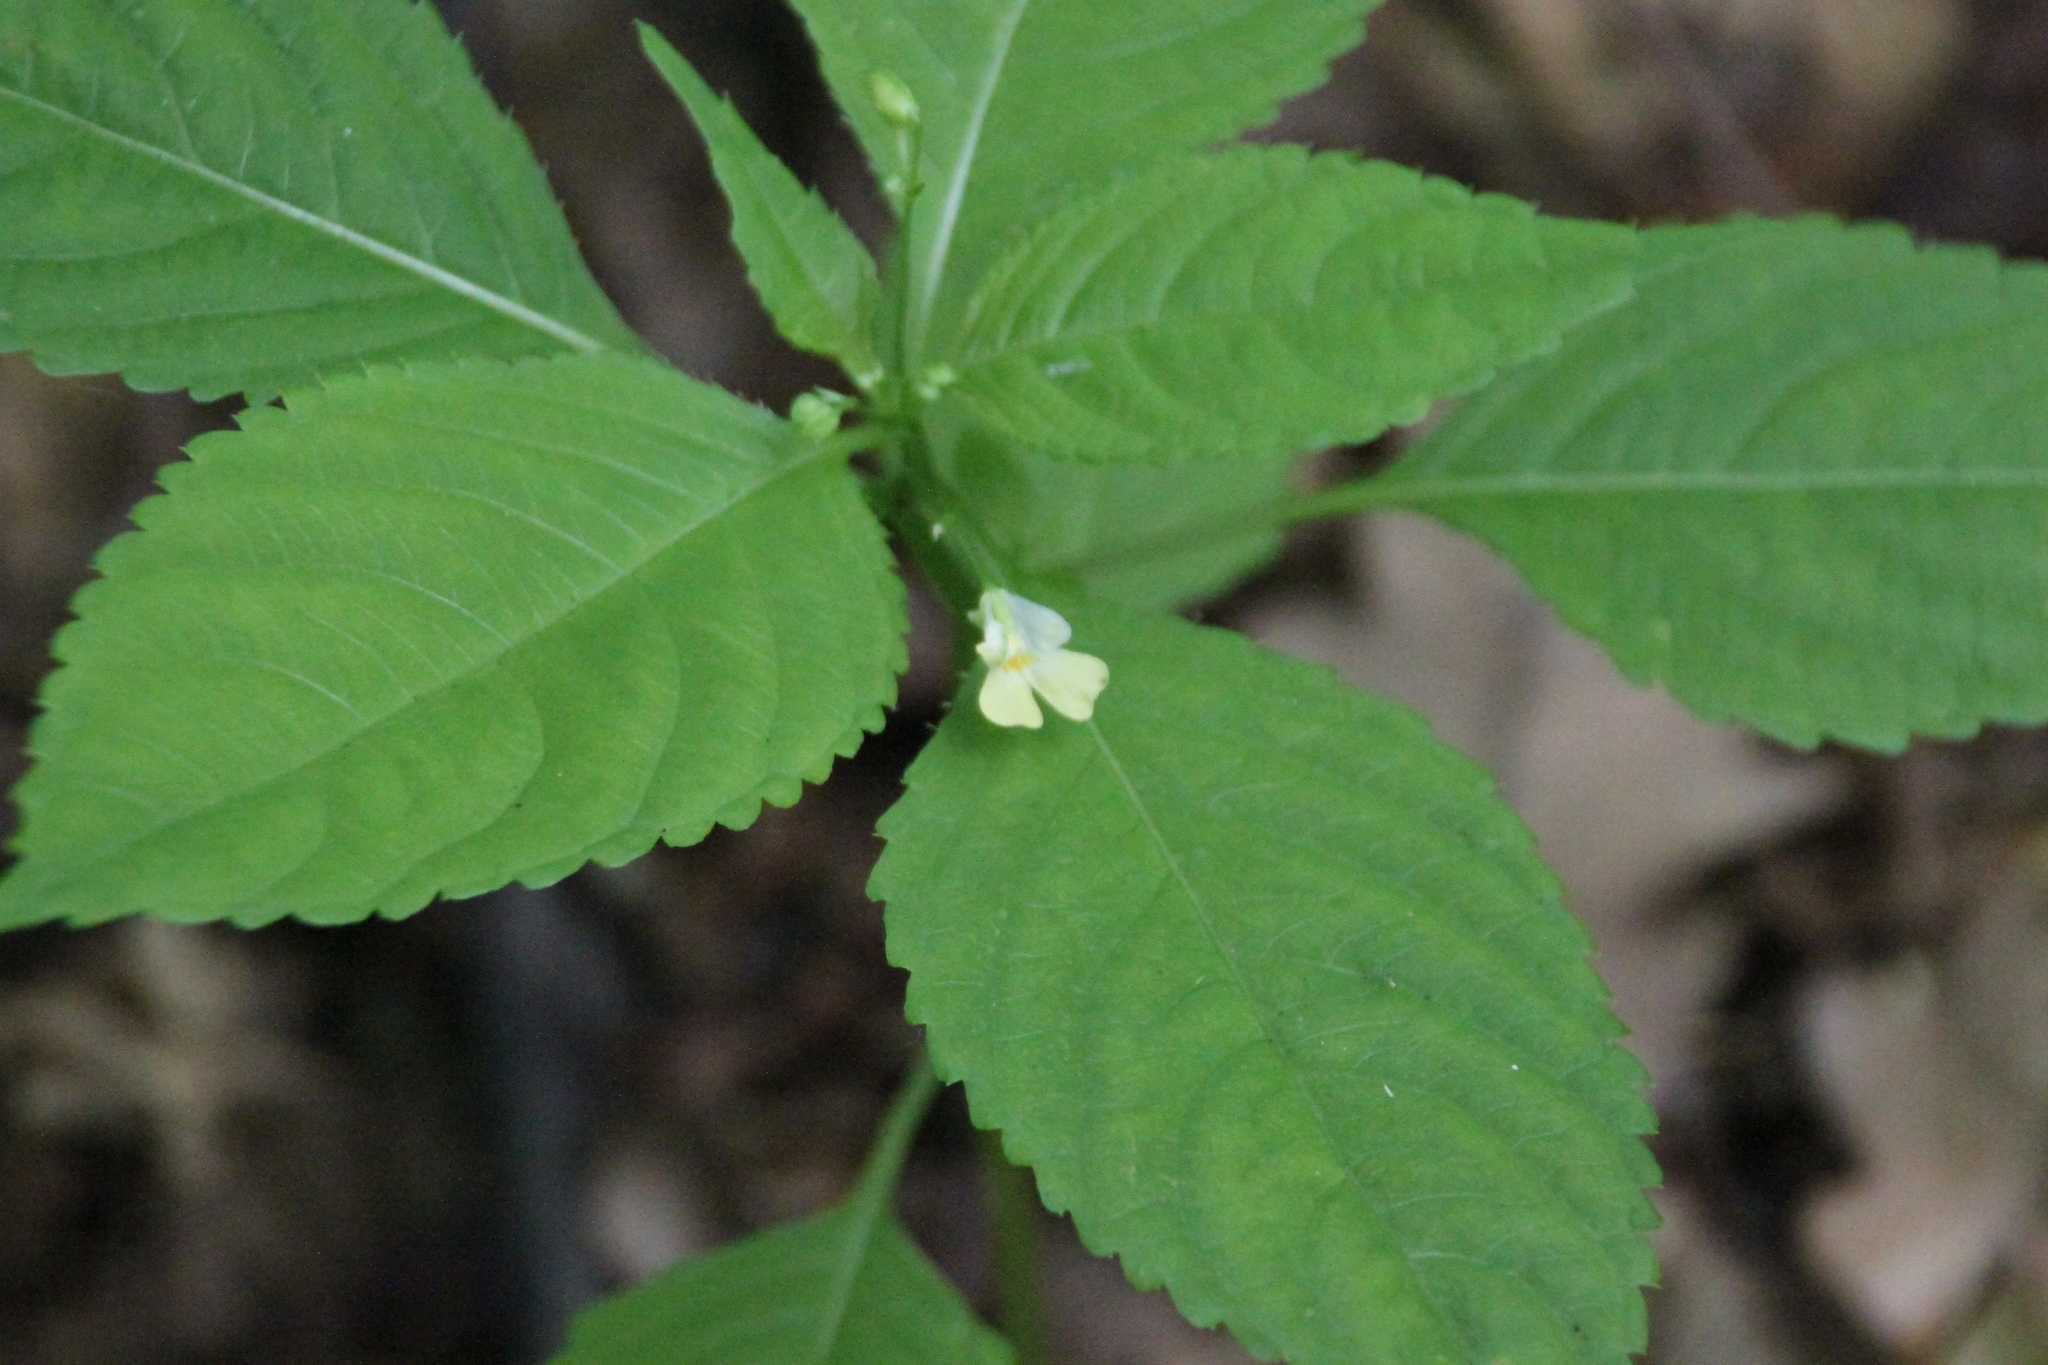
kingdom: Plantae
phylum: Tracheophyta
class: Magnoliopsida
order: Ericales
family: Balsaminaceae
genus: Impatiens
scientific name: Impatiens parviflora
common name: Small balsam
